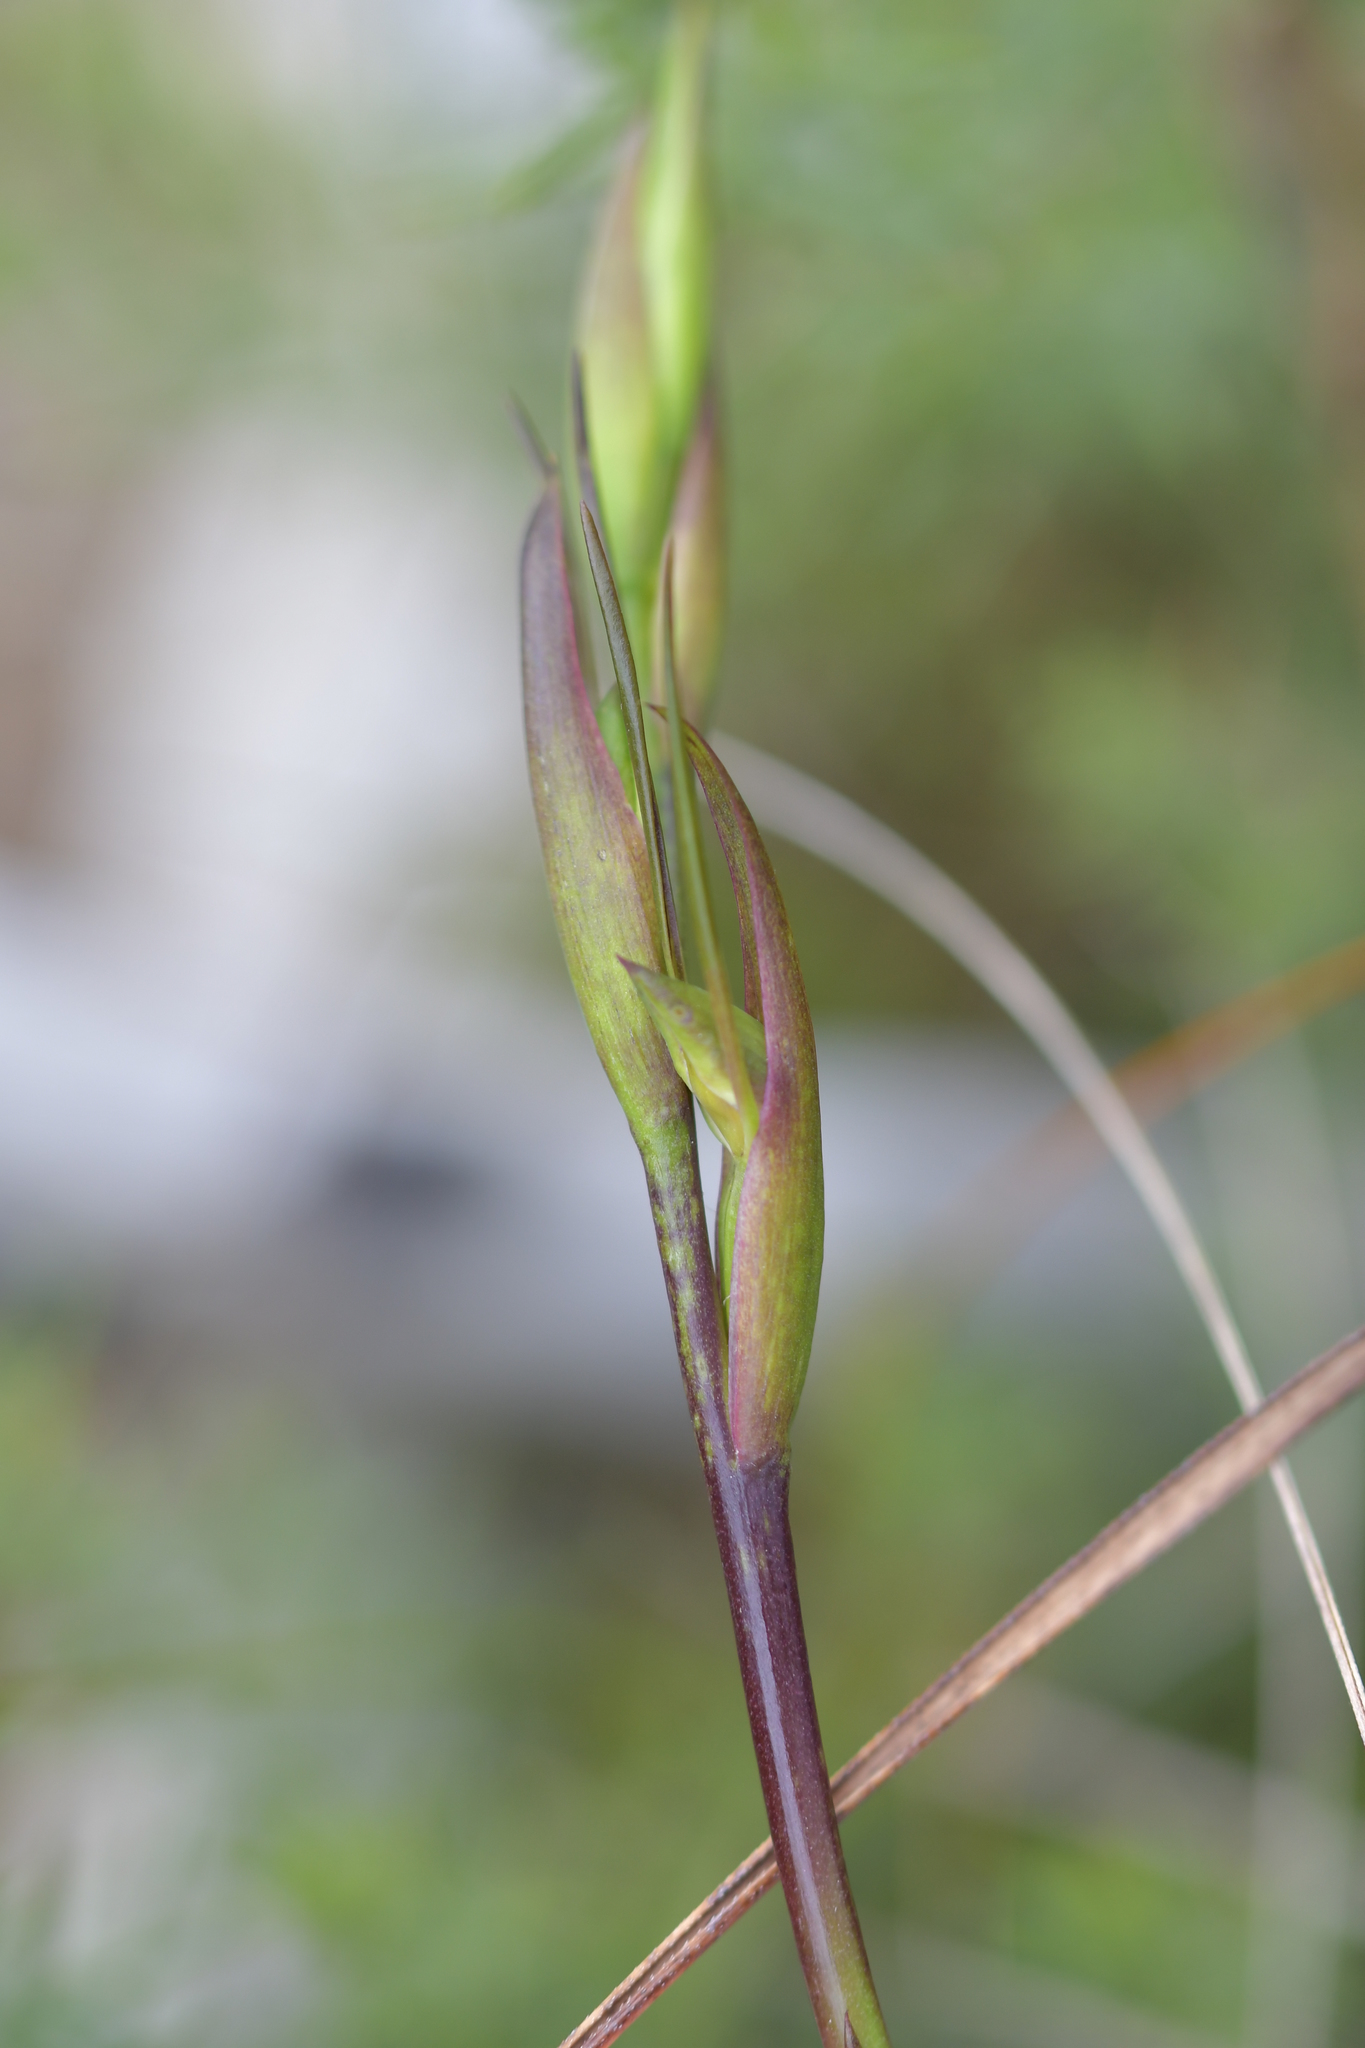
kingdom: Plantae
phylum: Tracheophyta
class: Liliopsida
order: Asparagales
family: Orchidaceae
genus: Orthoceras
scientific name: Orthoceras novae-zeelandiae
